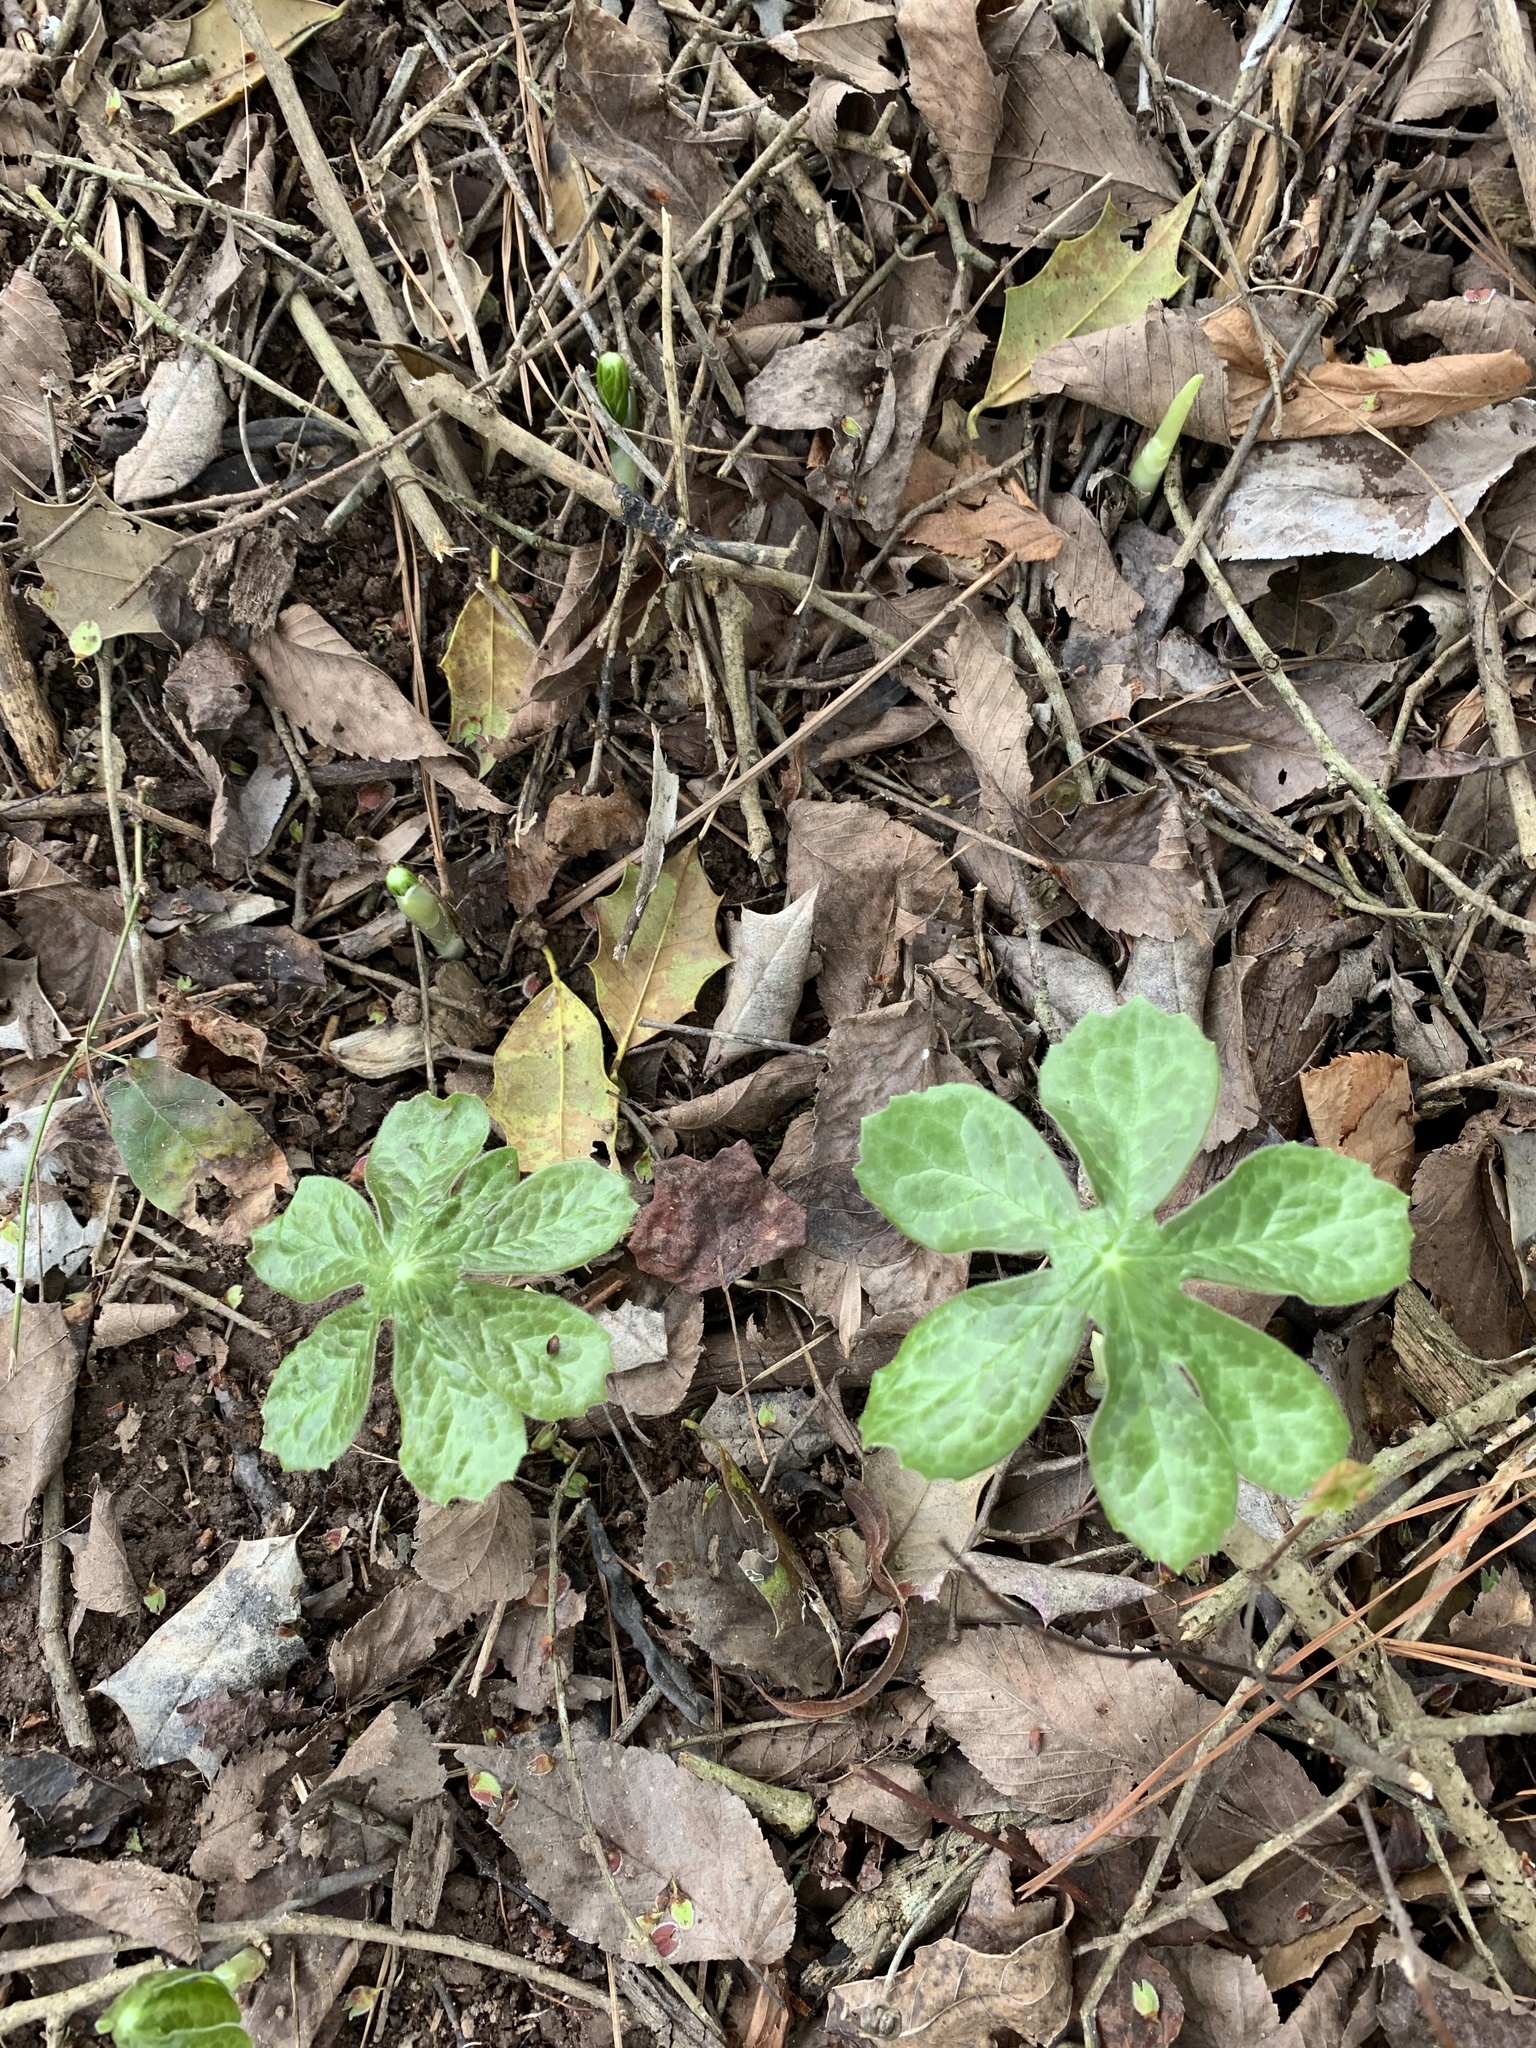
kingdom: Plantae
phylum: Tracheophyta
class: Magnoliopsida
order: Ranunculales
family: Berberidaceae
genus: Podophyllum
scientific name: Podophyllum peltatum
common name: Wild mandrake
